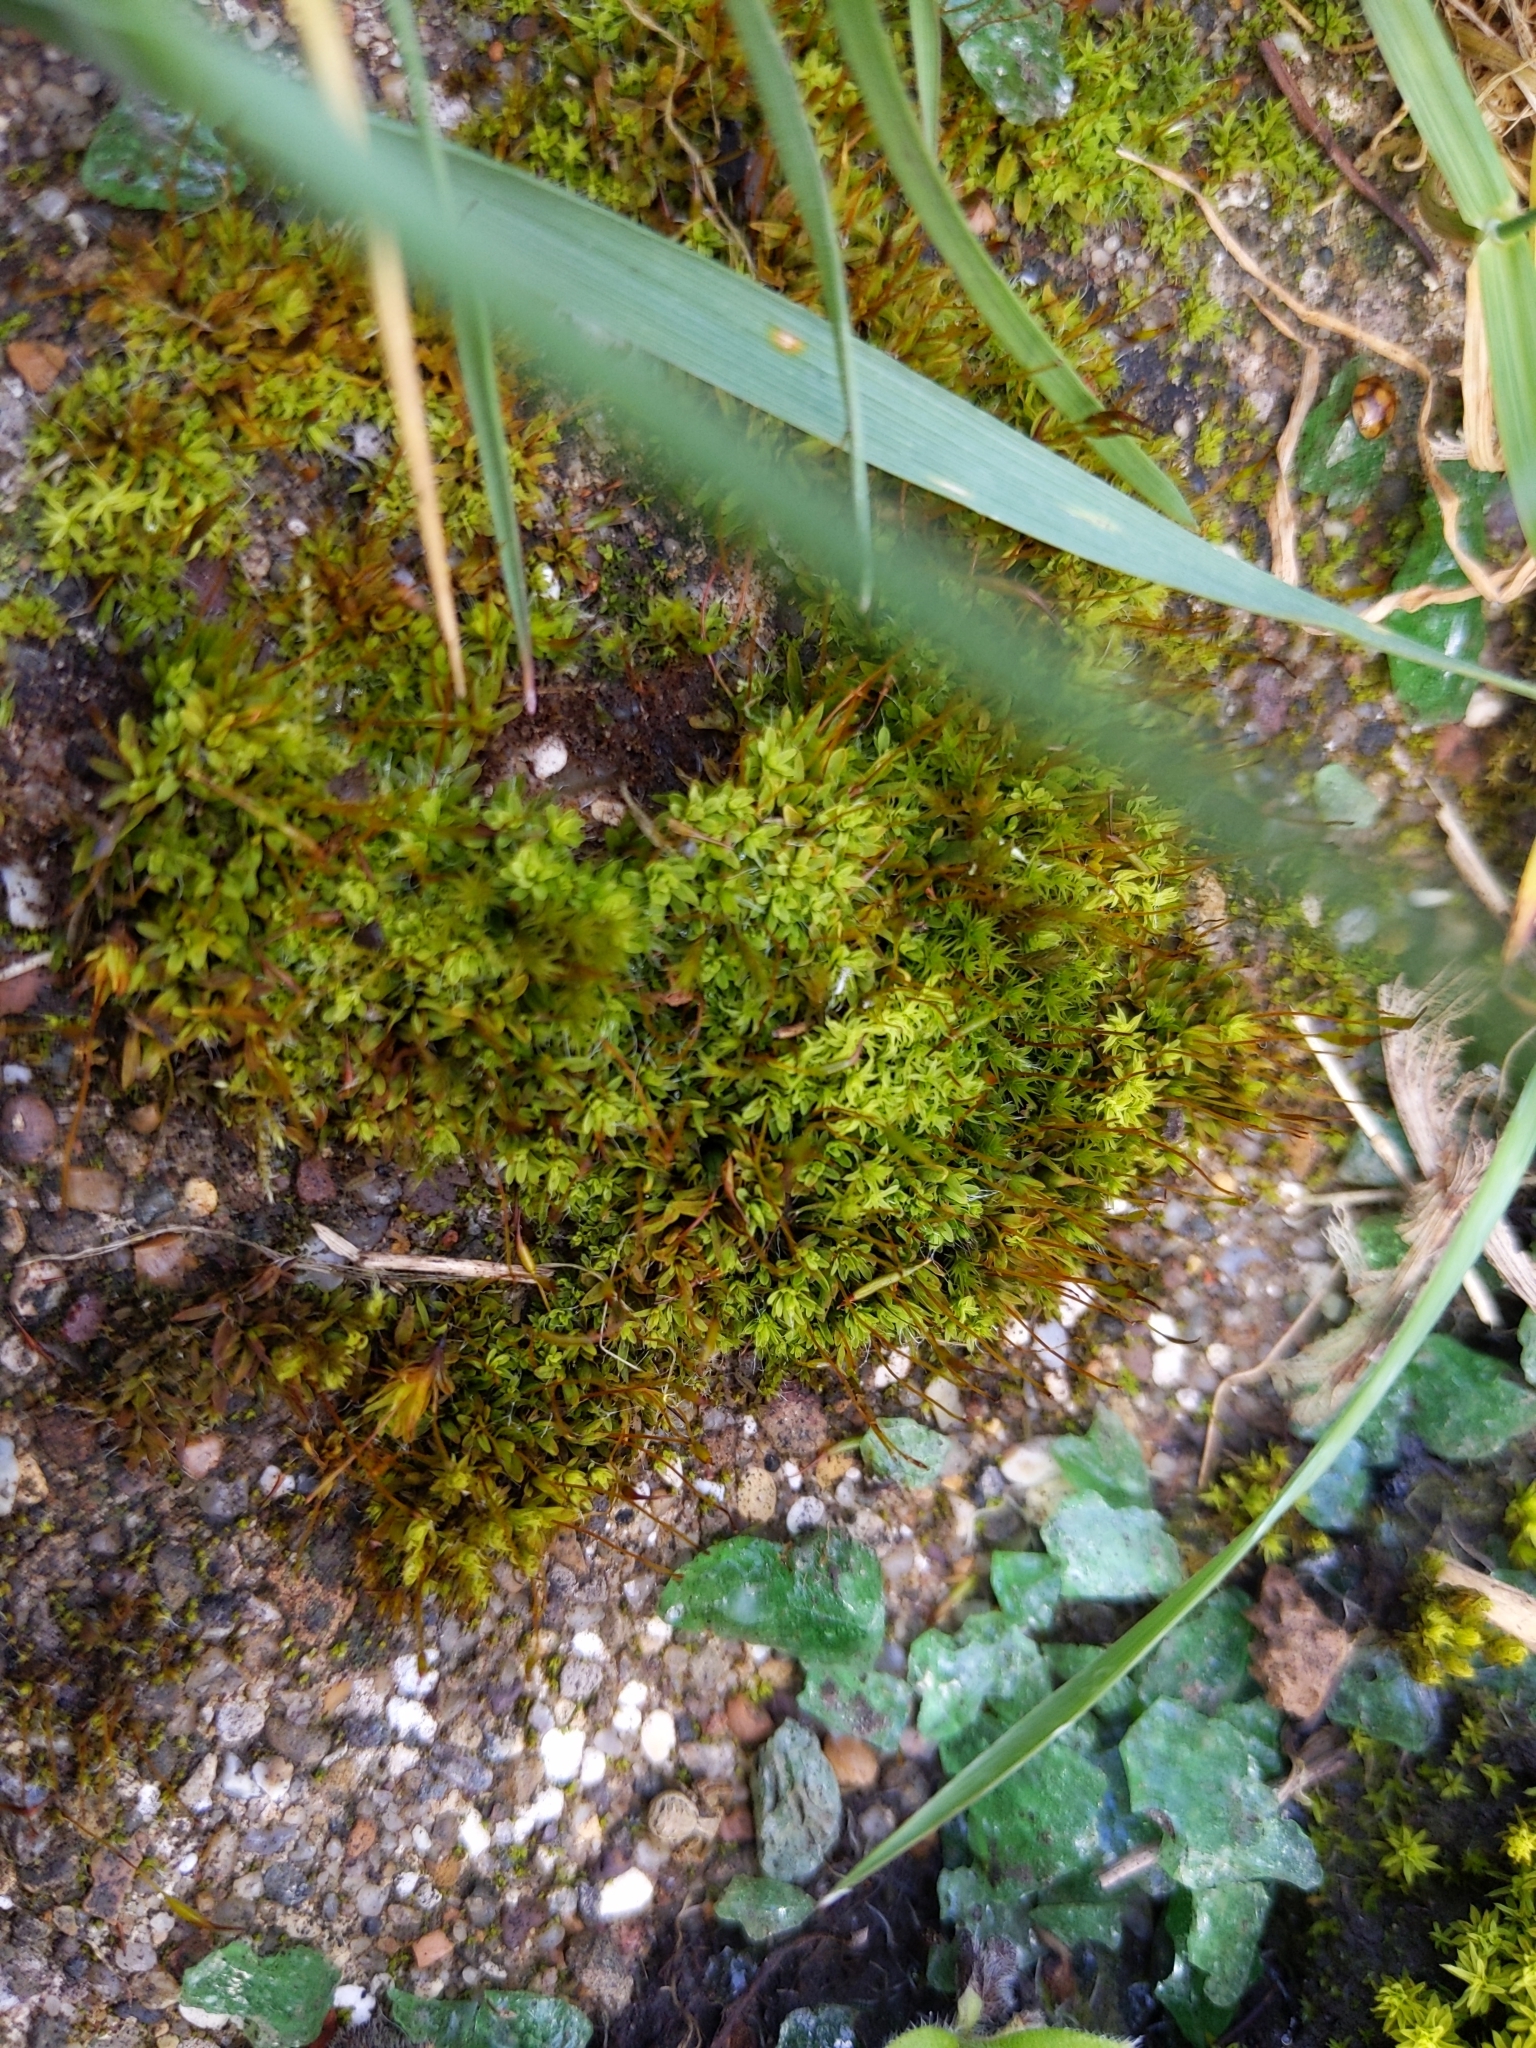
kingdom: Plantae
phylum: Bryophyta
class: Bryopsida
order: Pottiales
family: Pottiaceae
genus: Tortula
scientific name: Tortula muralis
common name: Wall screw-moss
